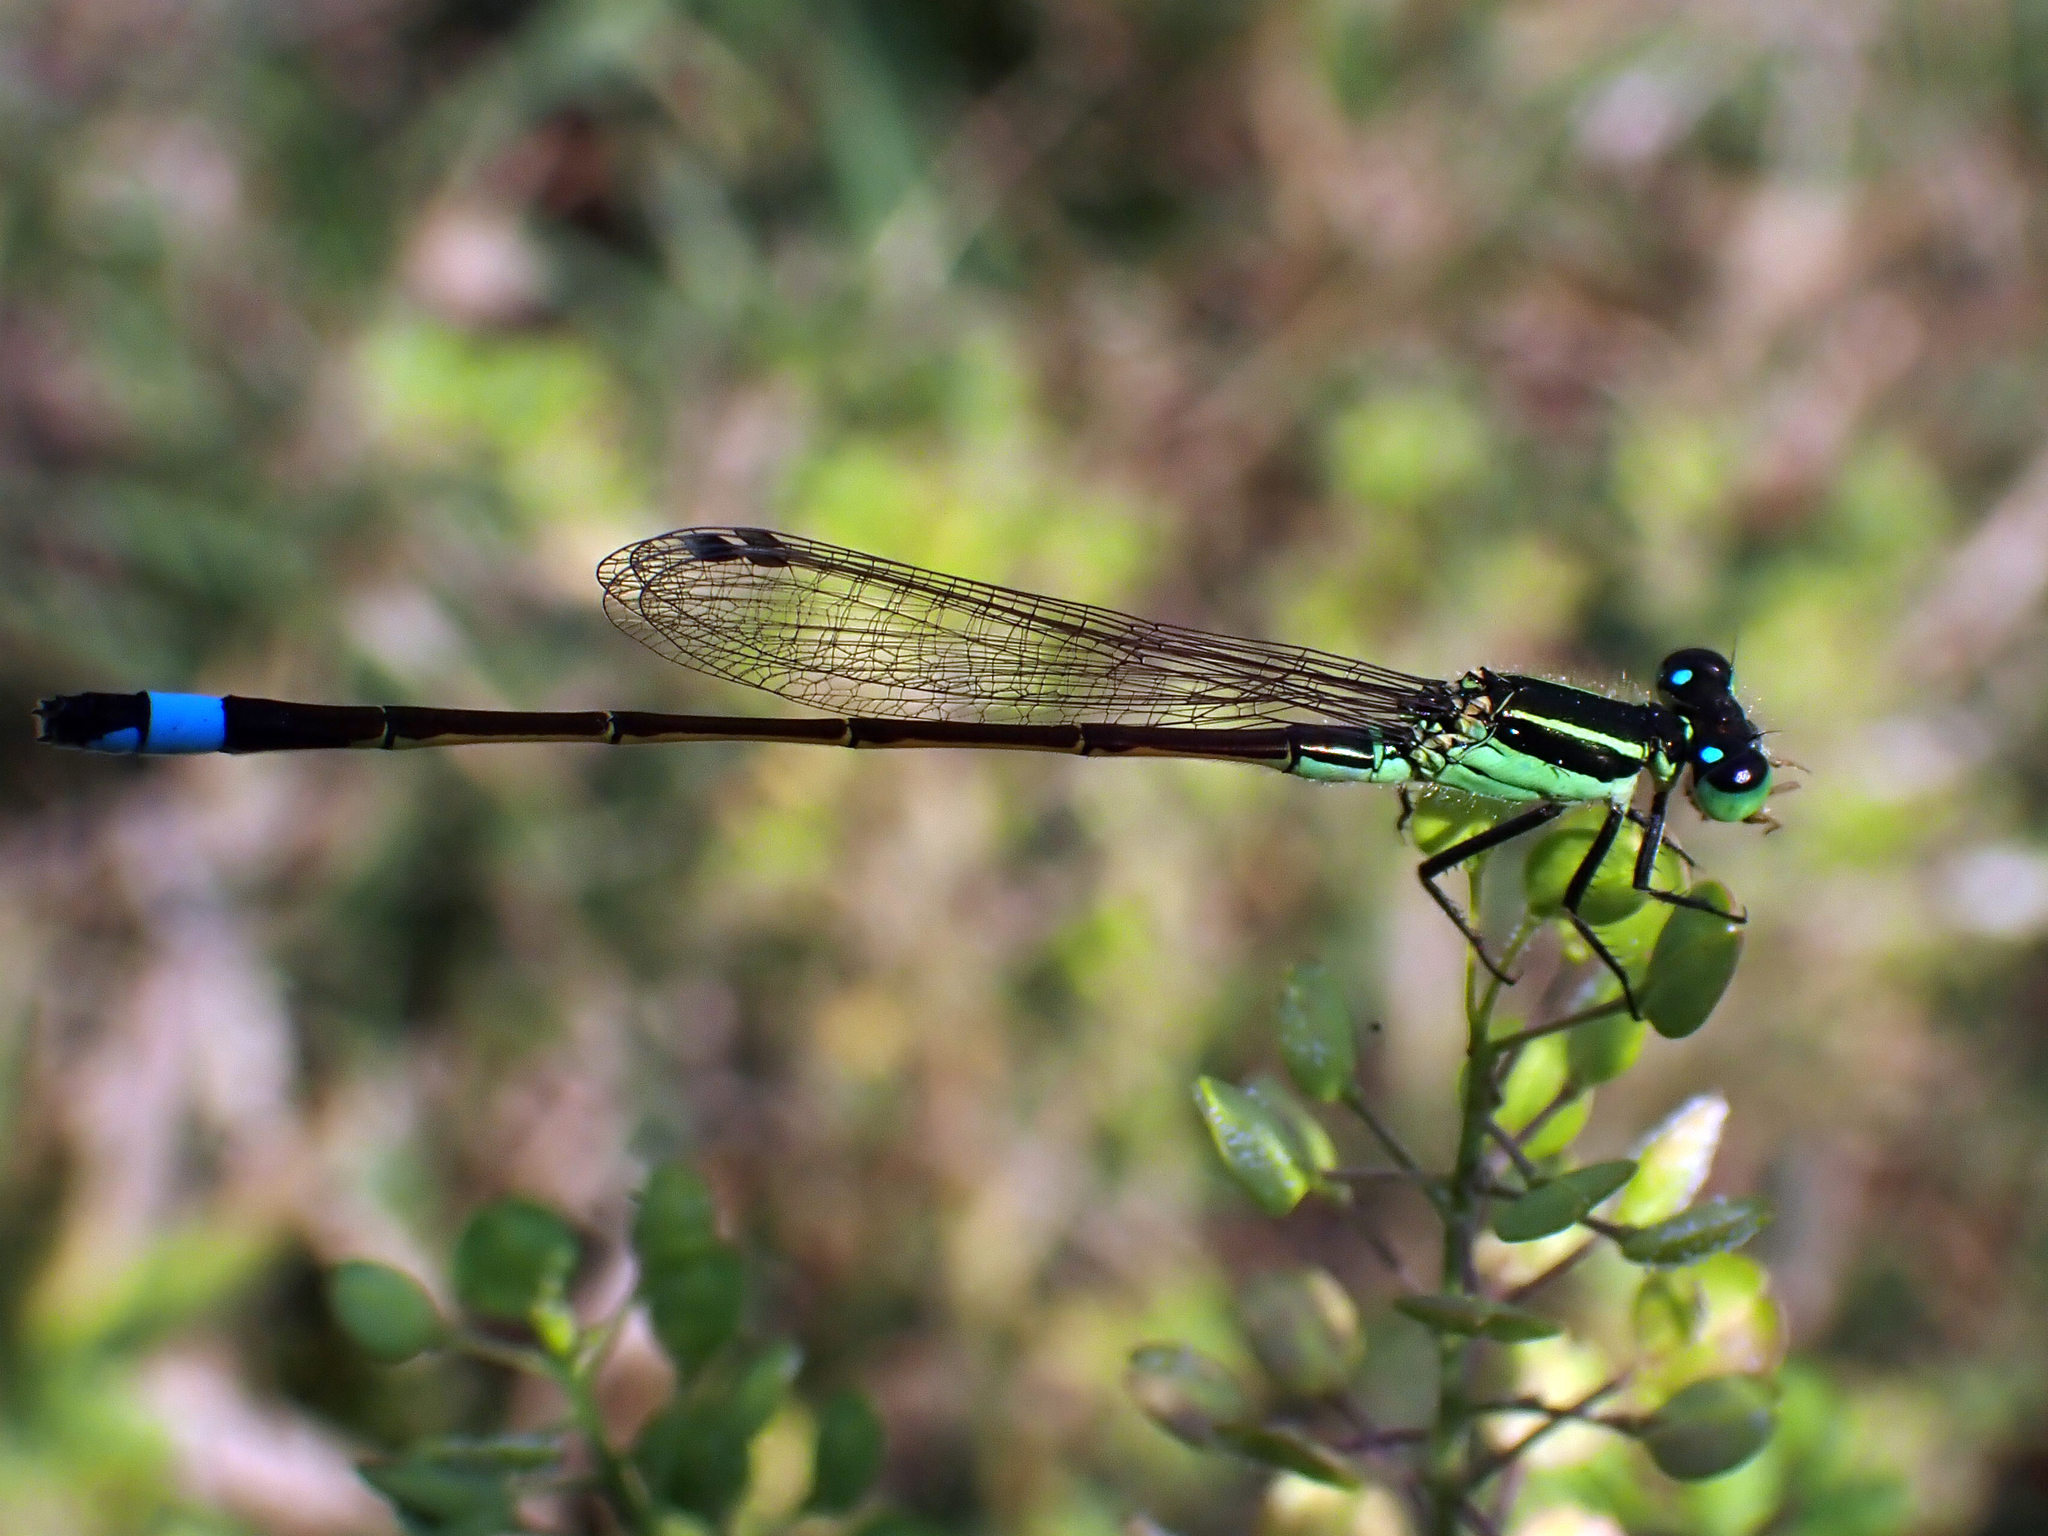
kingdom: Animalia
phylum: Arthropoda
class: Insecta
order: Odonata
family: Coenagrionidae
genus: Ischnura
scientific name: Ischnura ramburii
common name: Rambur's forktail
